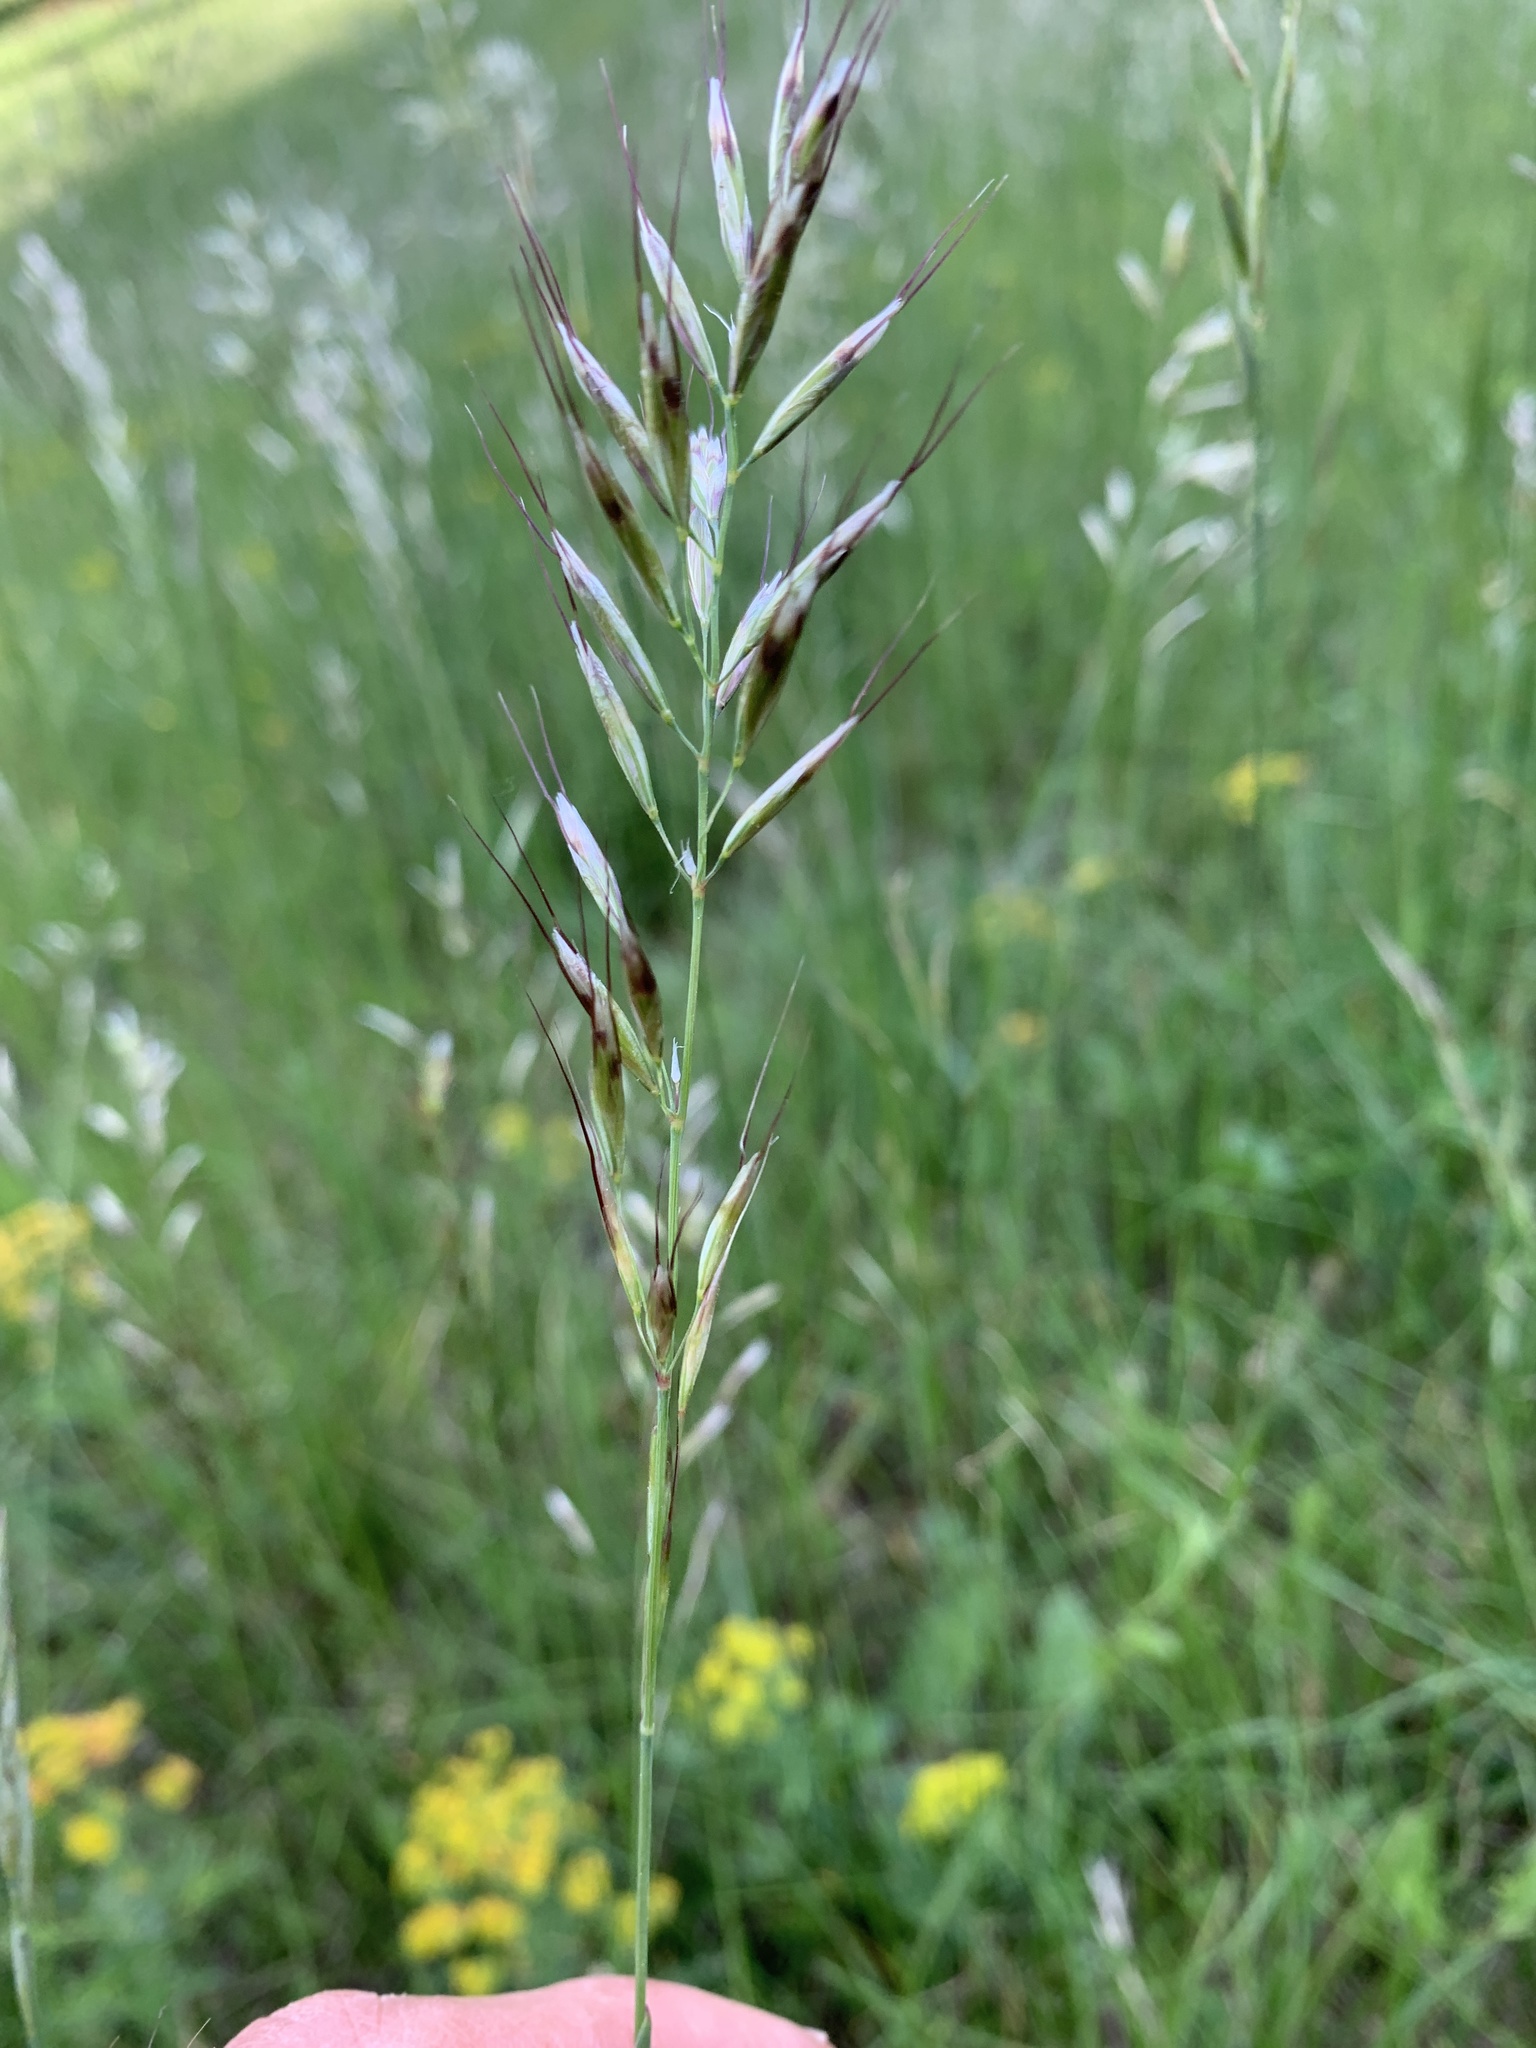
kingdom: Plantae
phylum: Tracheophyta
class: Liliopsida
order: Poales
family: Poaceae
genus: Avenula
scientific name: Avenula pubescens
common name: Downy alpine oatgrass
